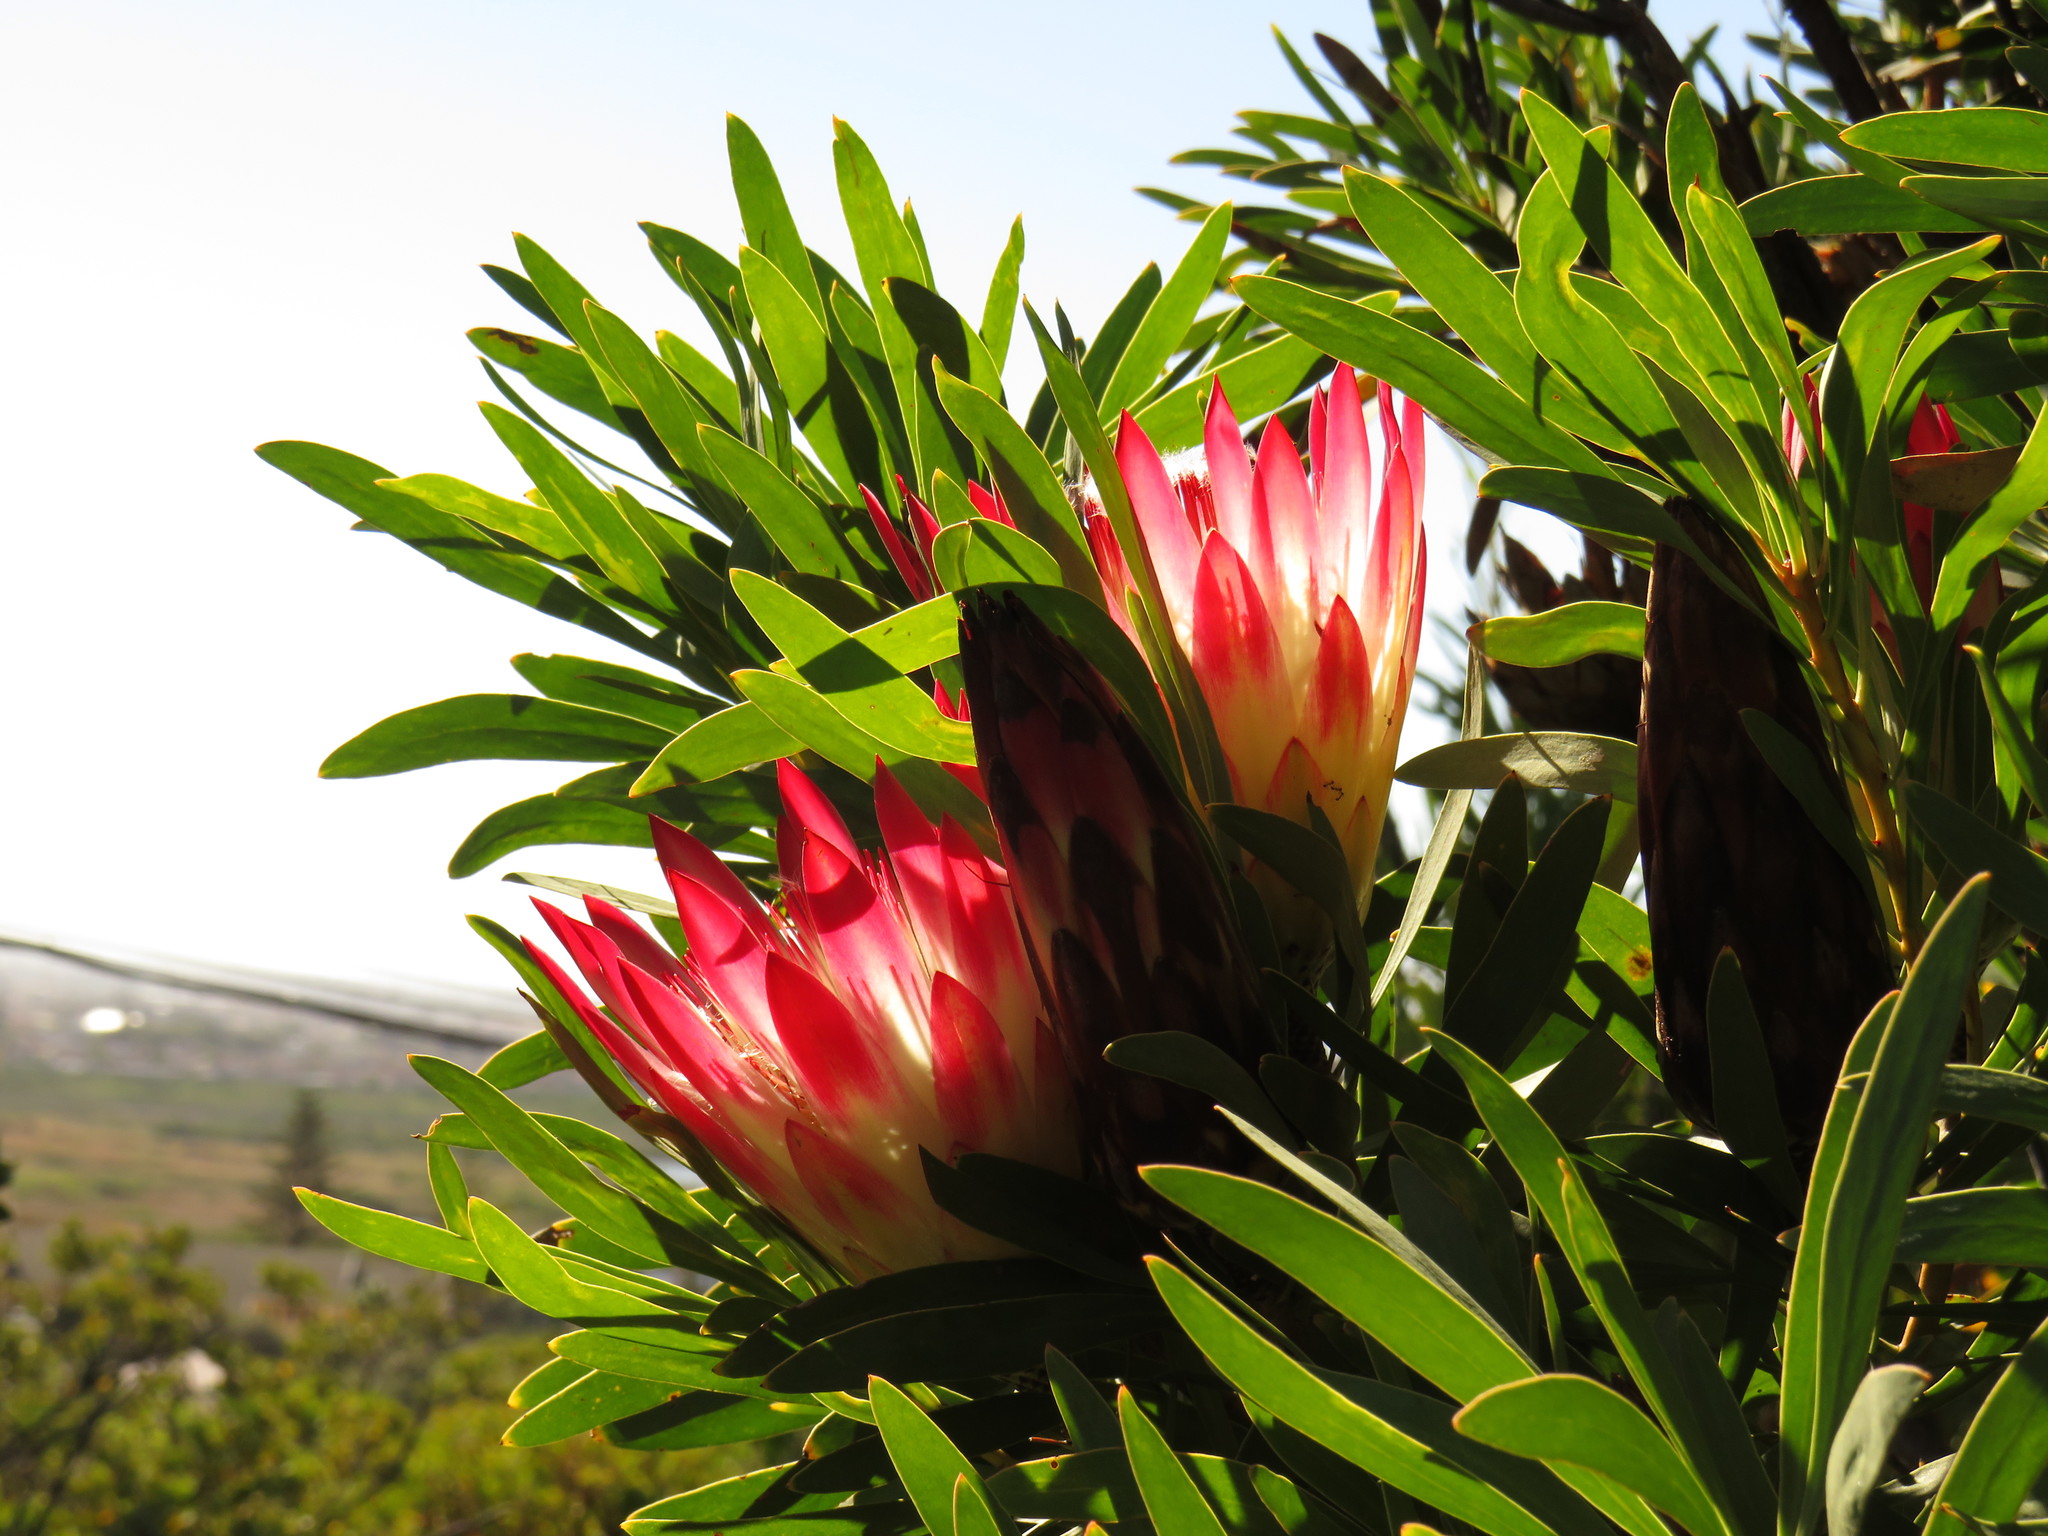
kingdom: Plantae
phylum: Tracheophyta
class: Magnoliopsida
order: Proteales
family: Proteaceae
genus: Protea
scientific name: Protea repens
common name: Sugarbush
